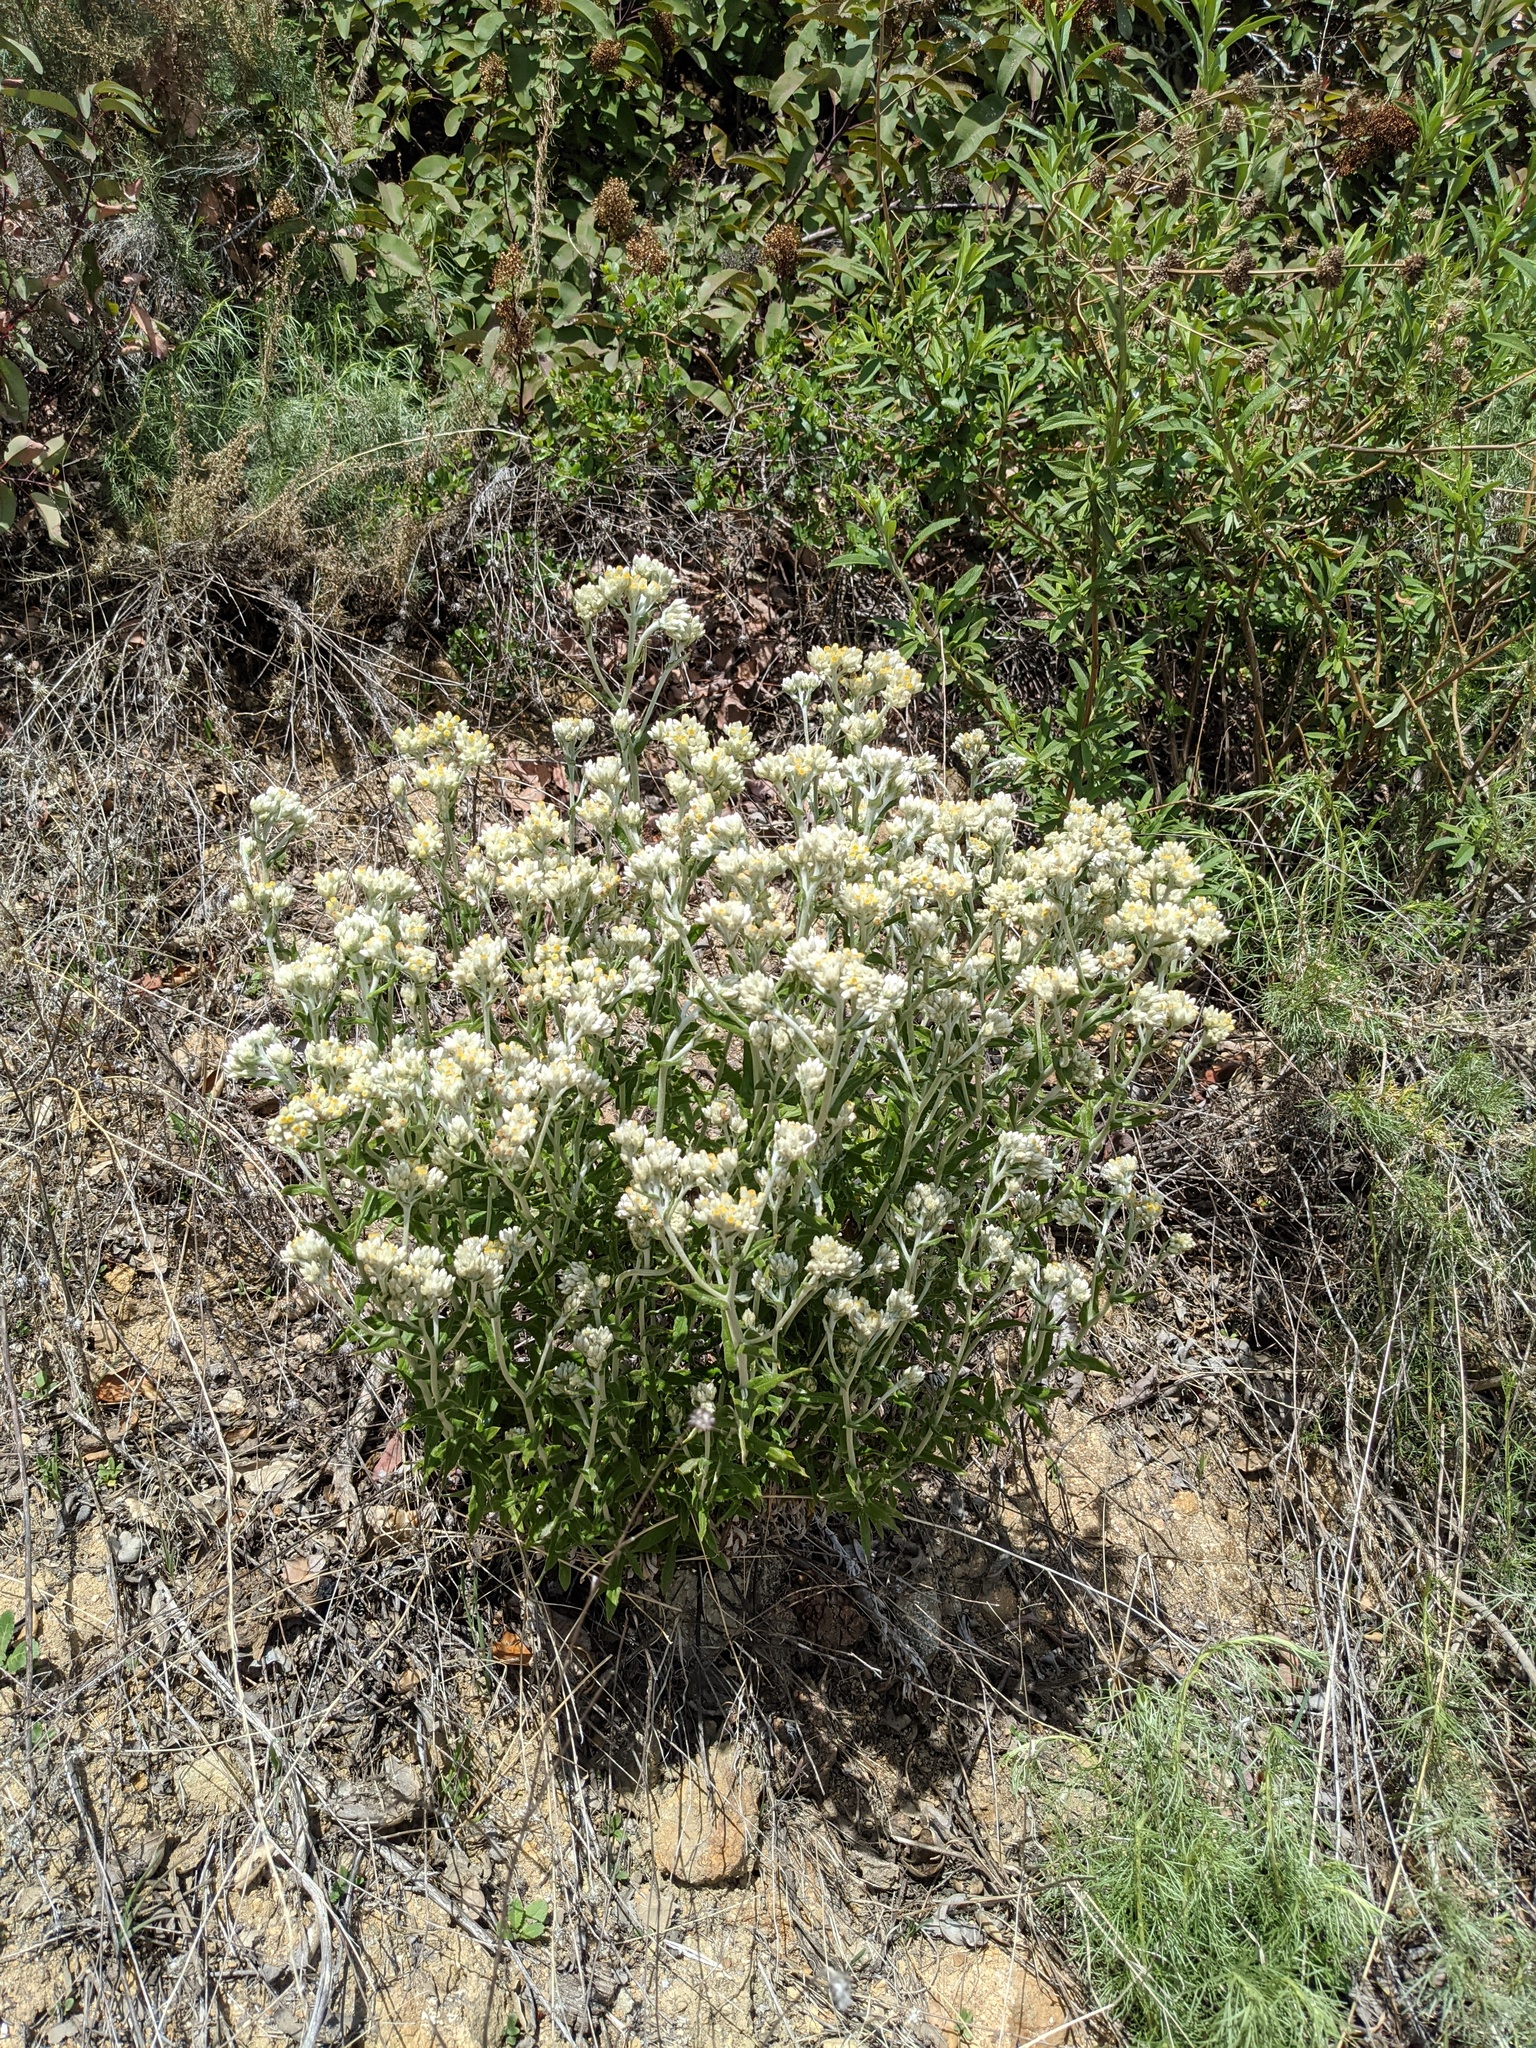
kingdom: Plantae
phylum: Tracheophyta
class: Magnoliopsida
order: Asterales
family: Asteraceae
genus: Pseudognaphalium
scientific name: Pseudognaphalium biolettii
